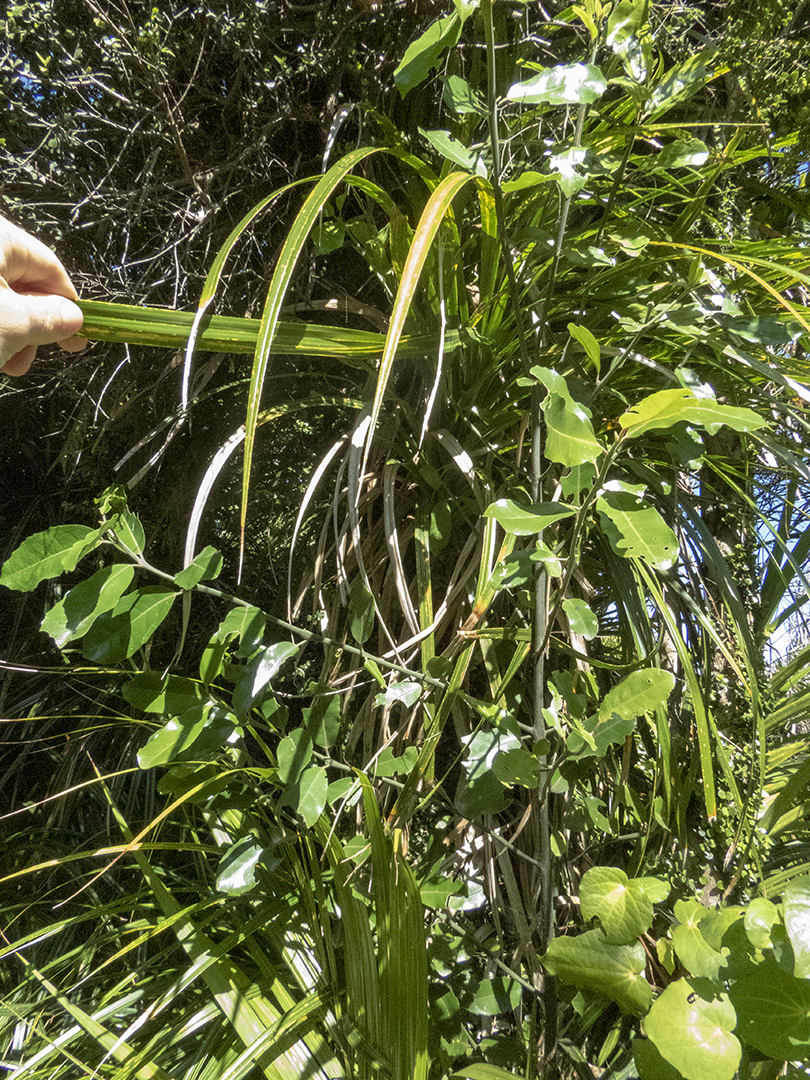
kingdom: Plantae
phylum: Tracheophyta
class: Magnoliopsida
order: Laurales
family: Monimiaceae
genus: Hedycarya
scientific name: Hedycarya arborea
